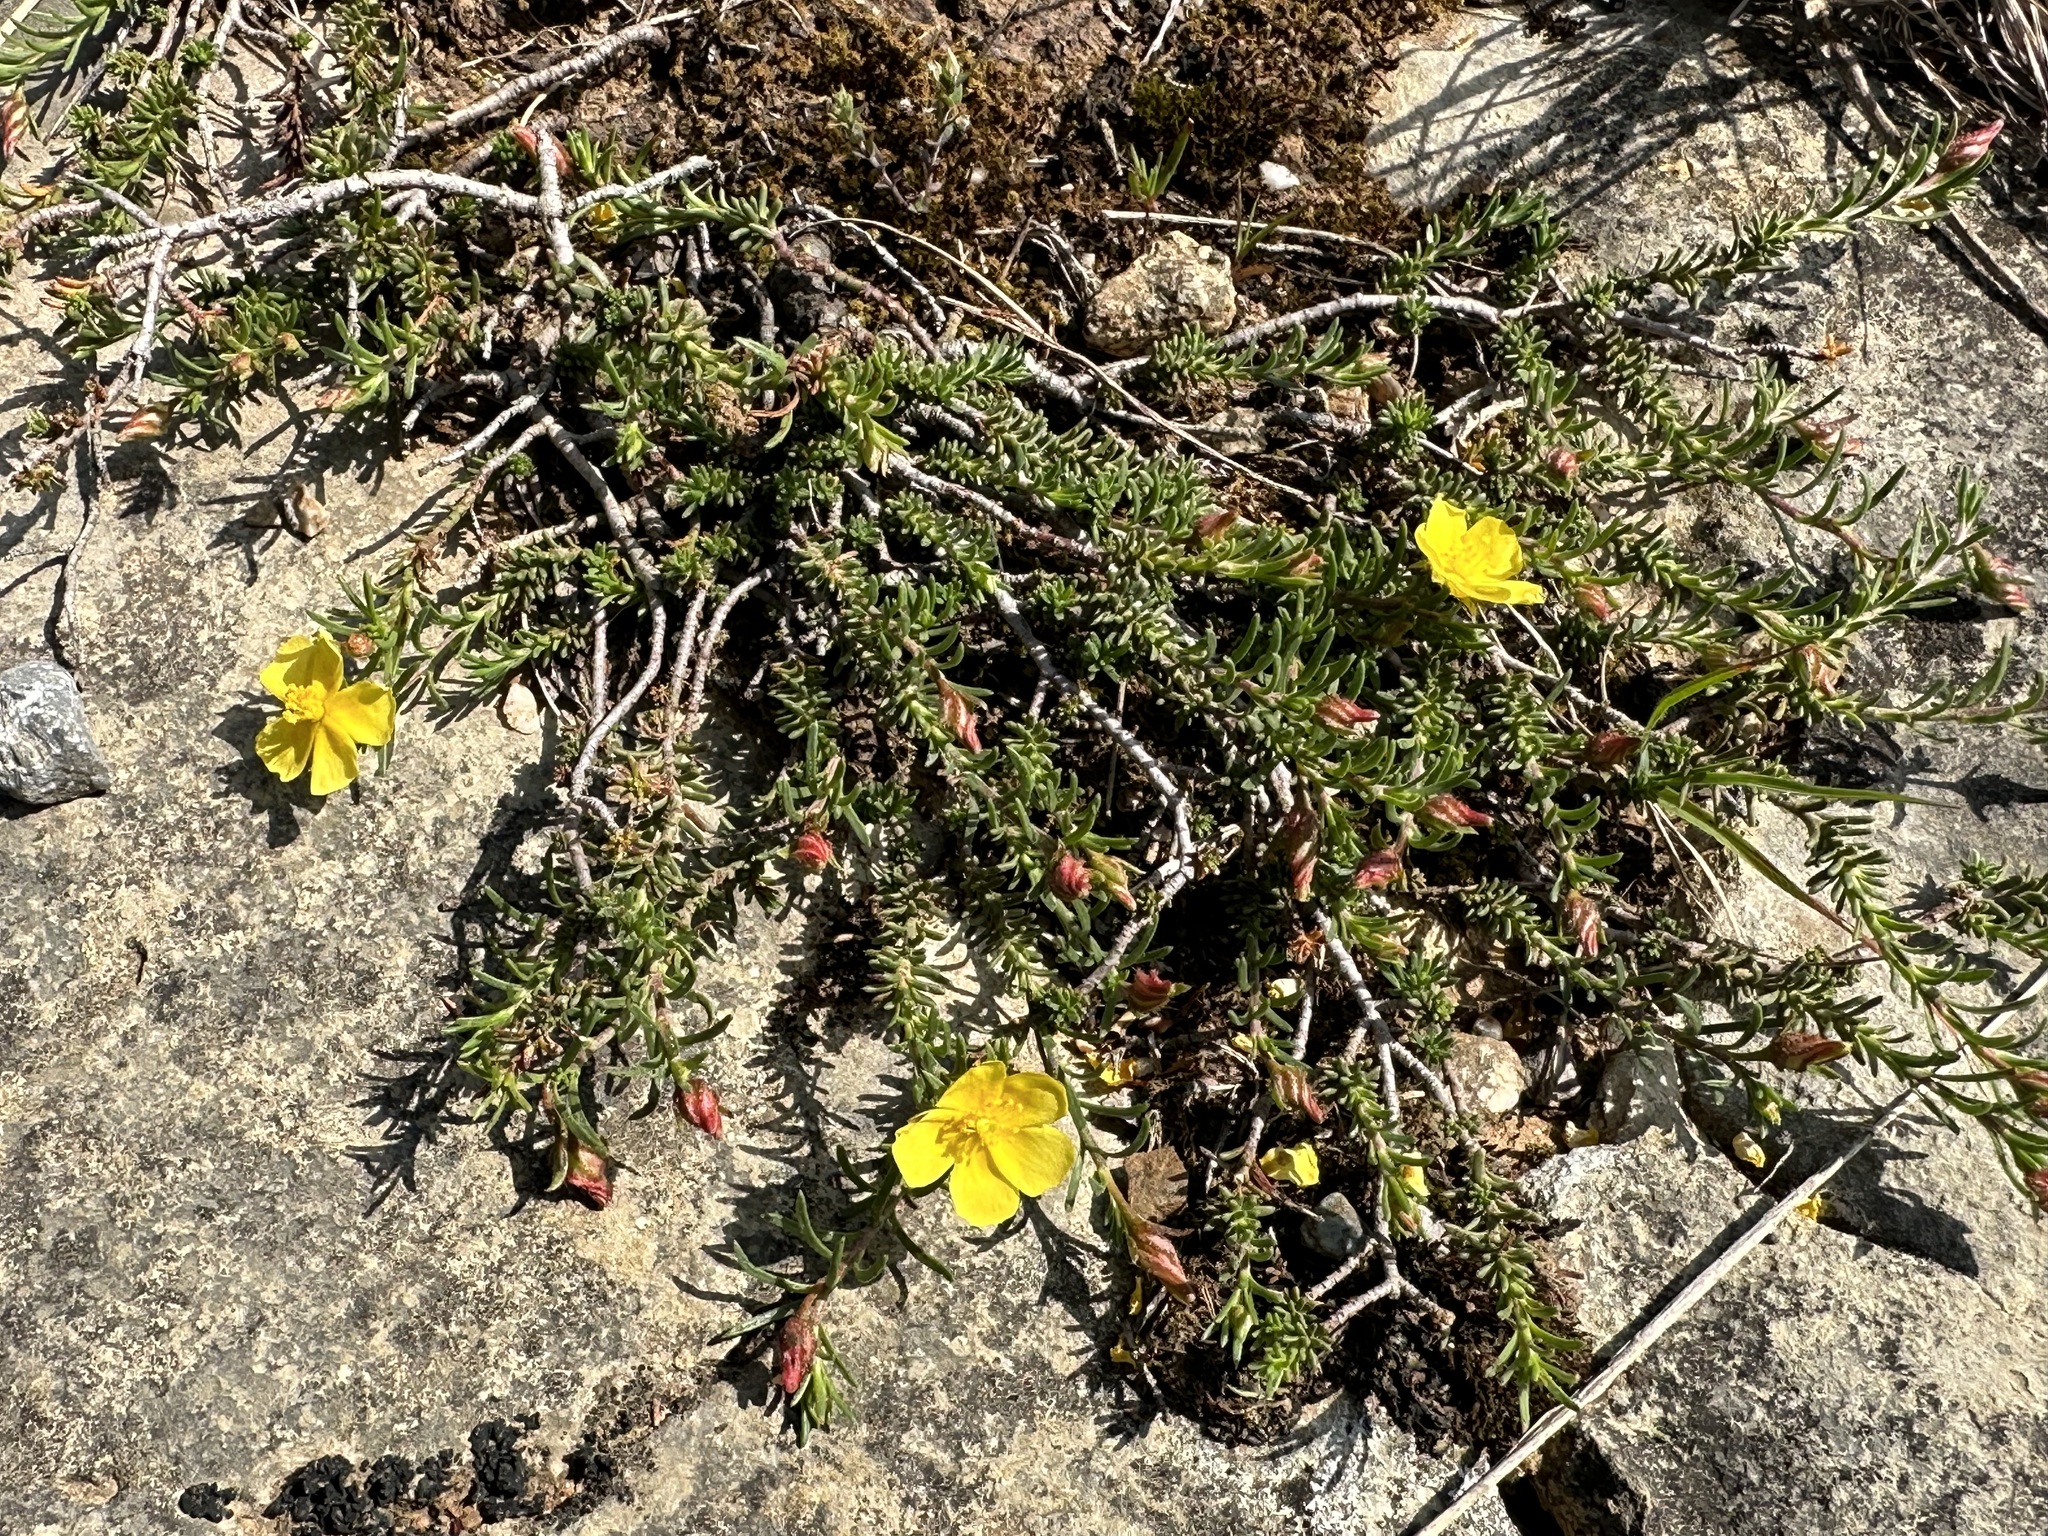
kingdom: Plantae
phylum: Tracheophyta
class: Magnoliopsida
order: Malvales
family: Cistaceae
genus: Fumana
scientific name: Fumana procumbens
